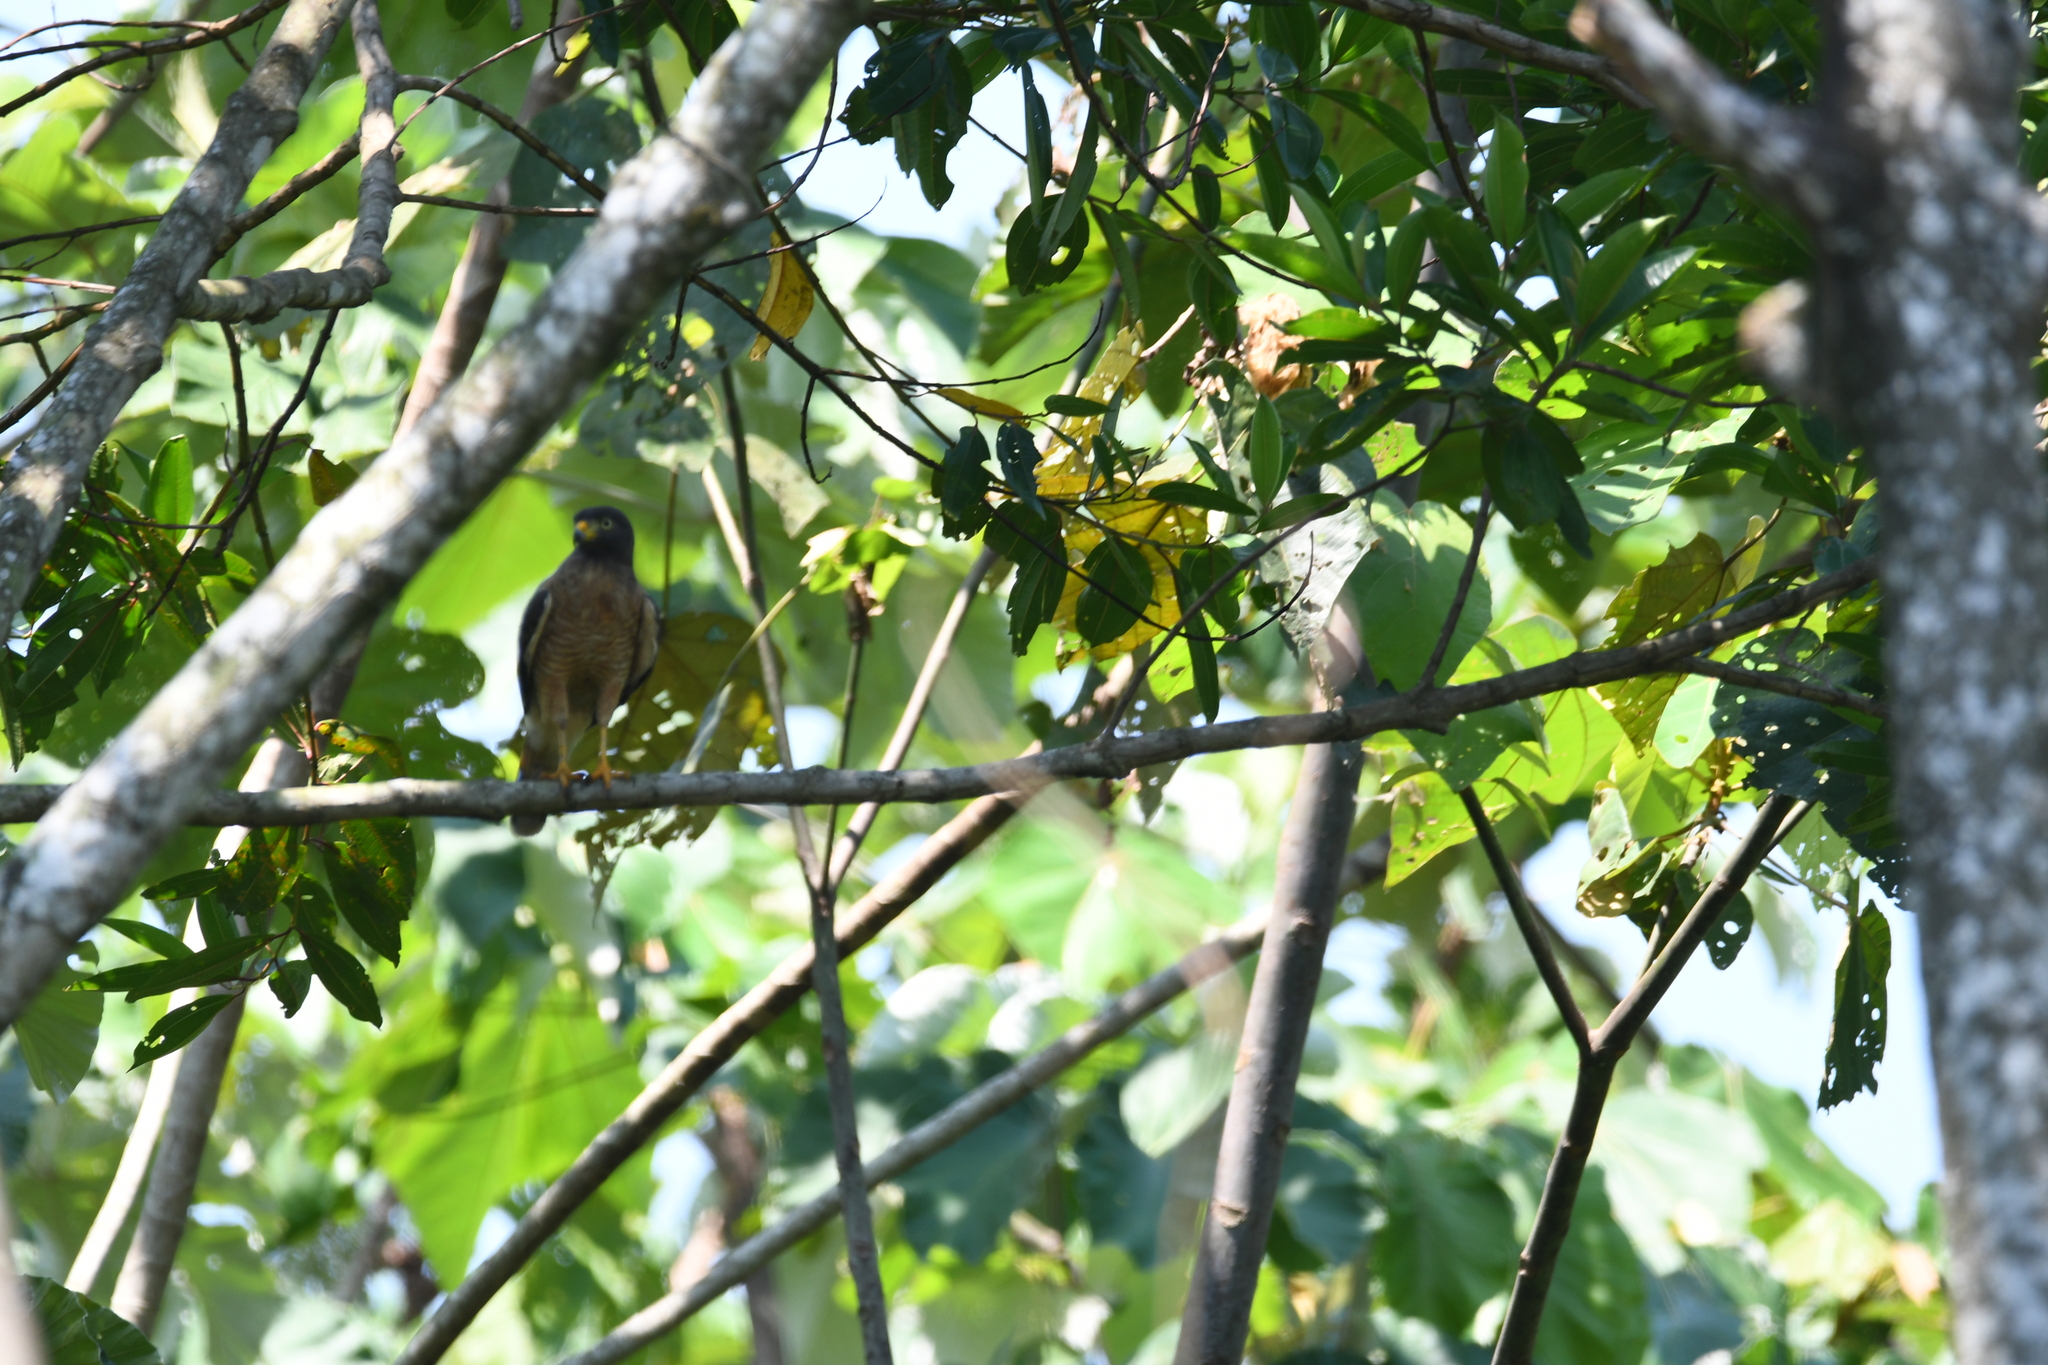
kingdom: Animalia
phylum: Chordata
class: Aves
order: Accipitriformes
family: Accipitridae
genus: Rupornis
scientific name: Rupornis magnirostris
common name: Roadside hawk
